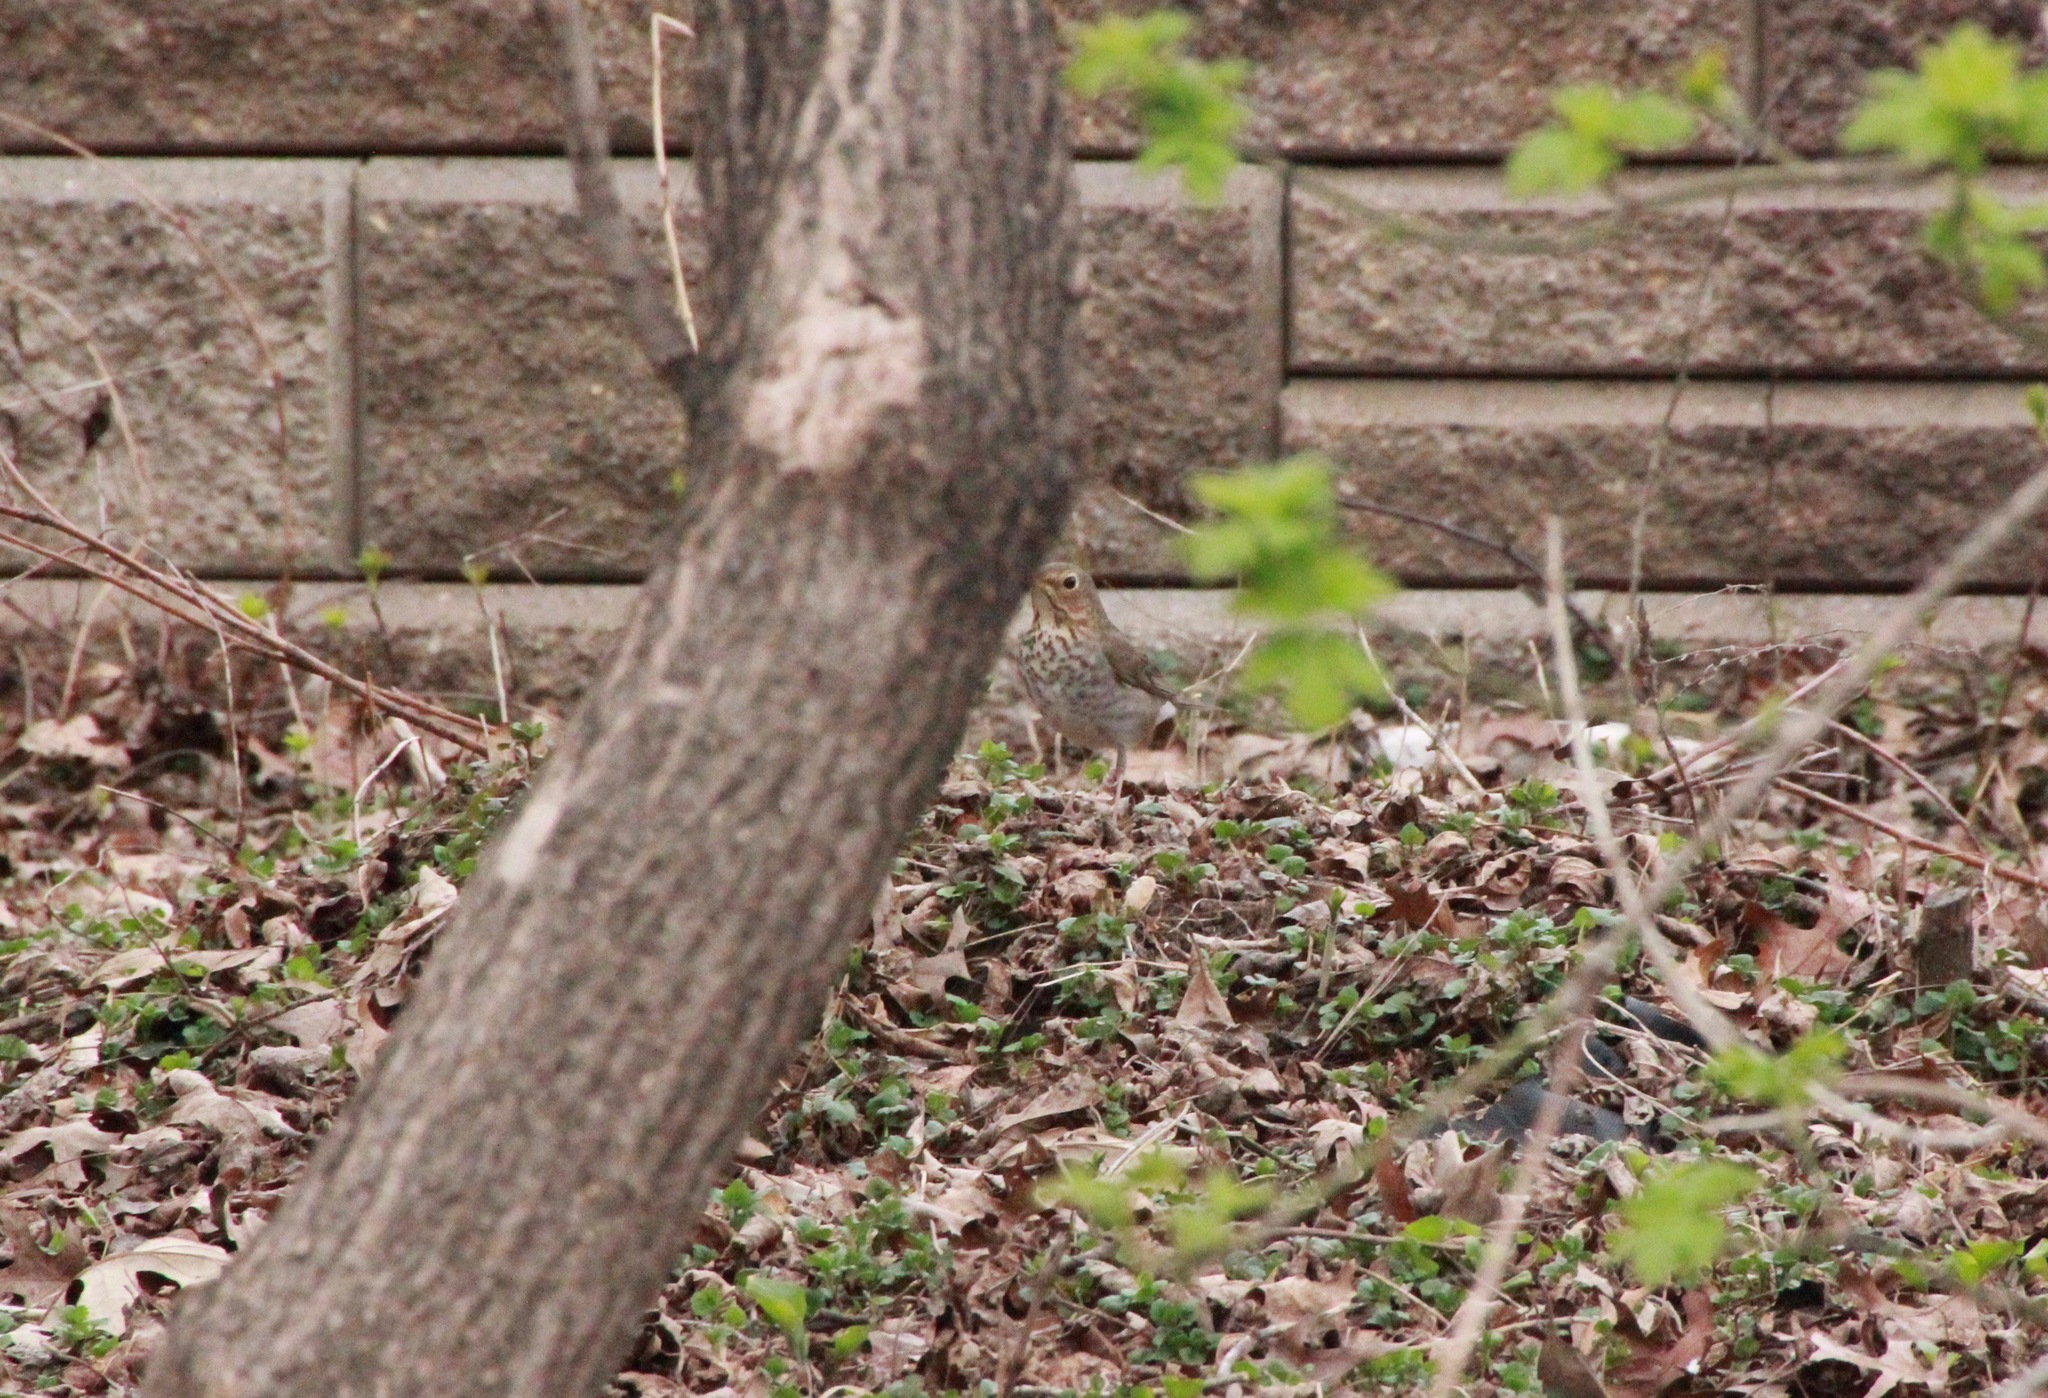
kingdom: Animalia
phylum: Chordata
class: Aves
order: Passeriformes
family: Turdidae
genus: Catharus
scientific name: Catharus ustulatus
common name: Swainson's thrush
